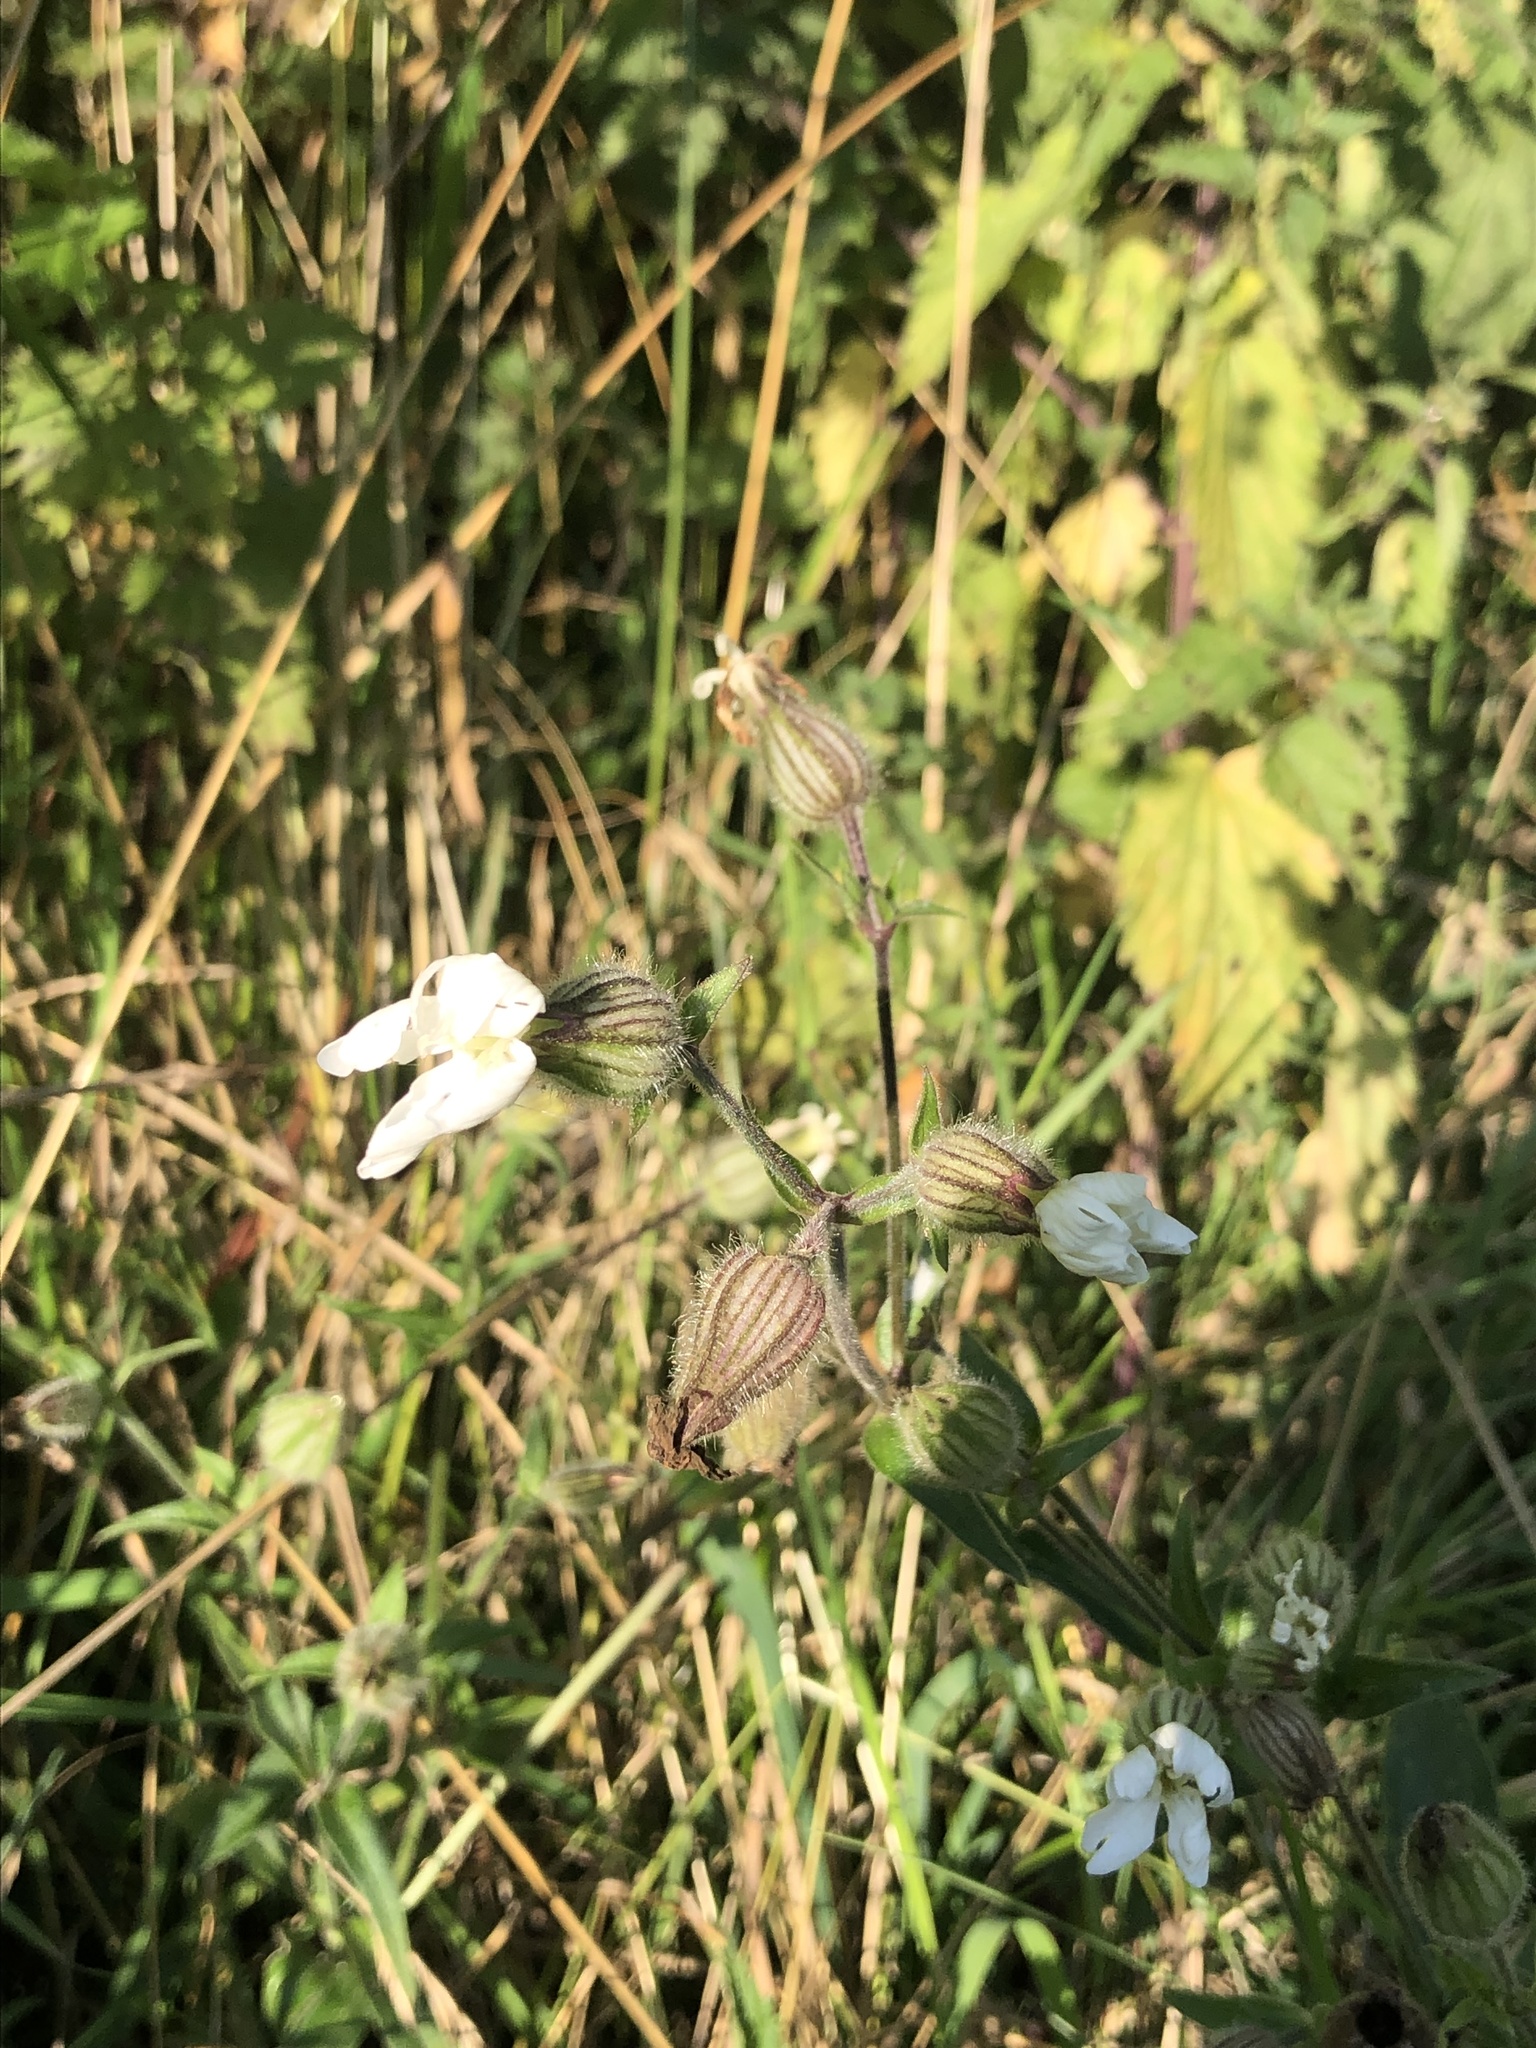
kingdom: Plantae
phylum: Tracheophyta
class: Magnoliopsida
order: Caryophyllales
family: Caryophyllaceae
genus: Silene
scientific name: Silene latifolia
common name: White campion
